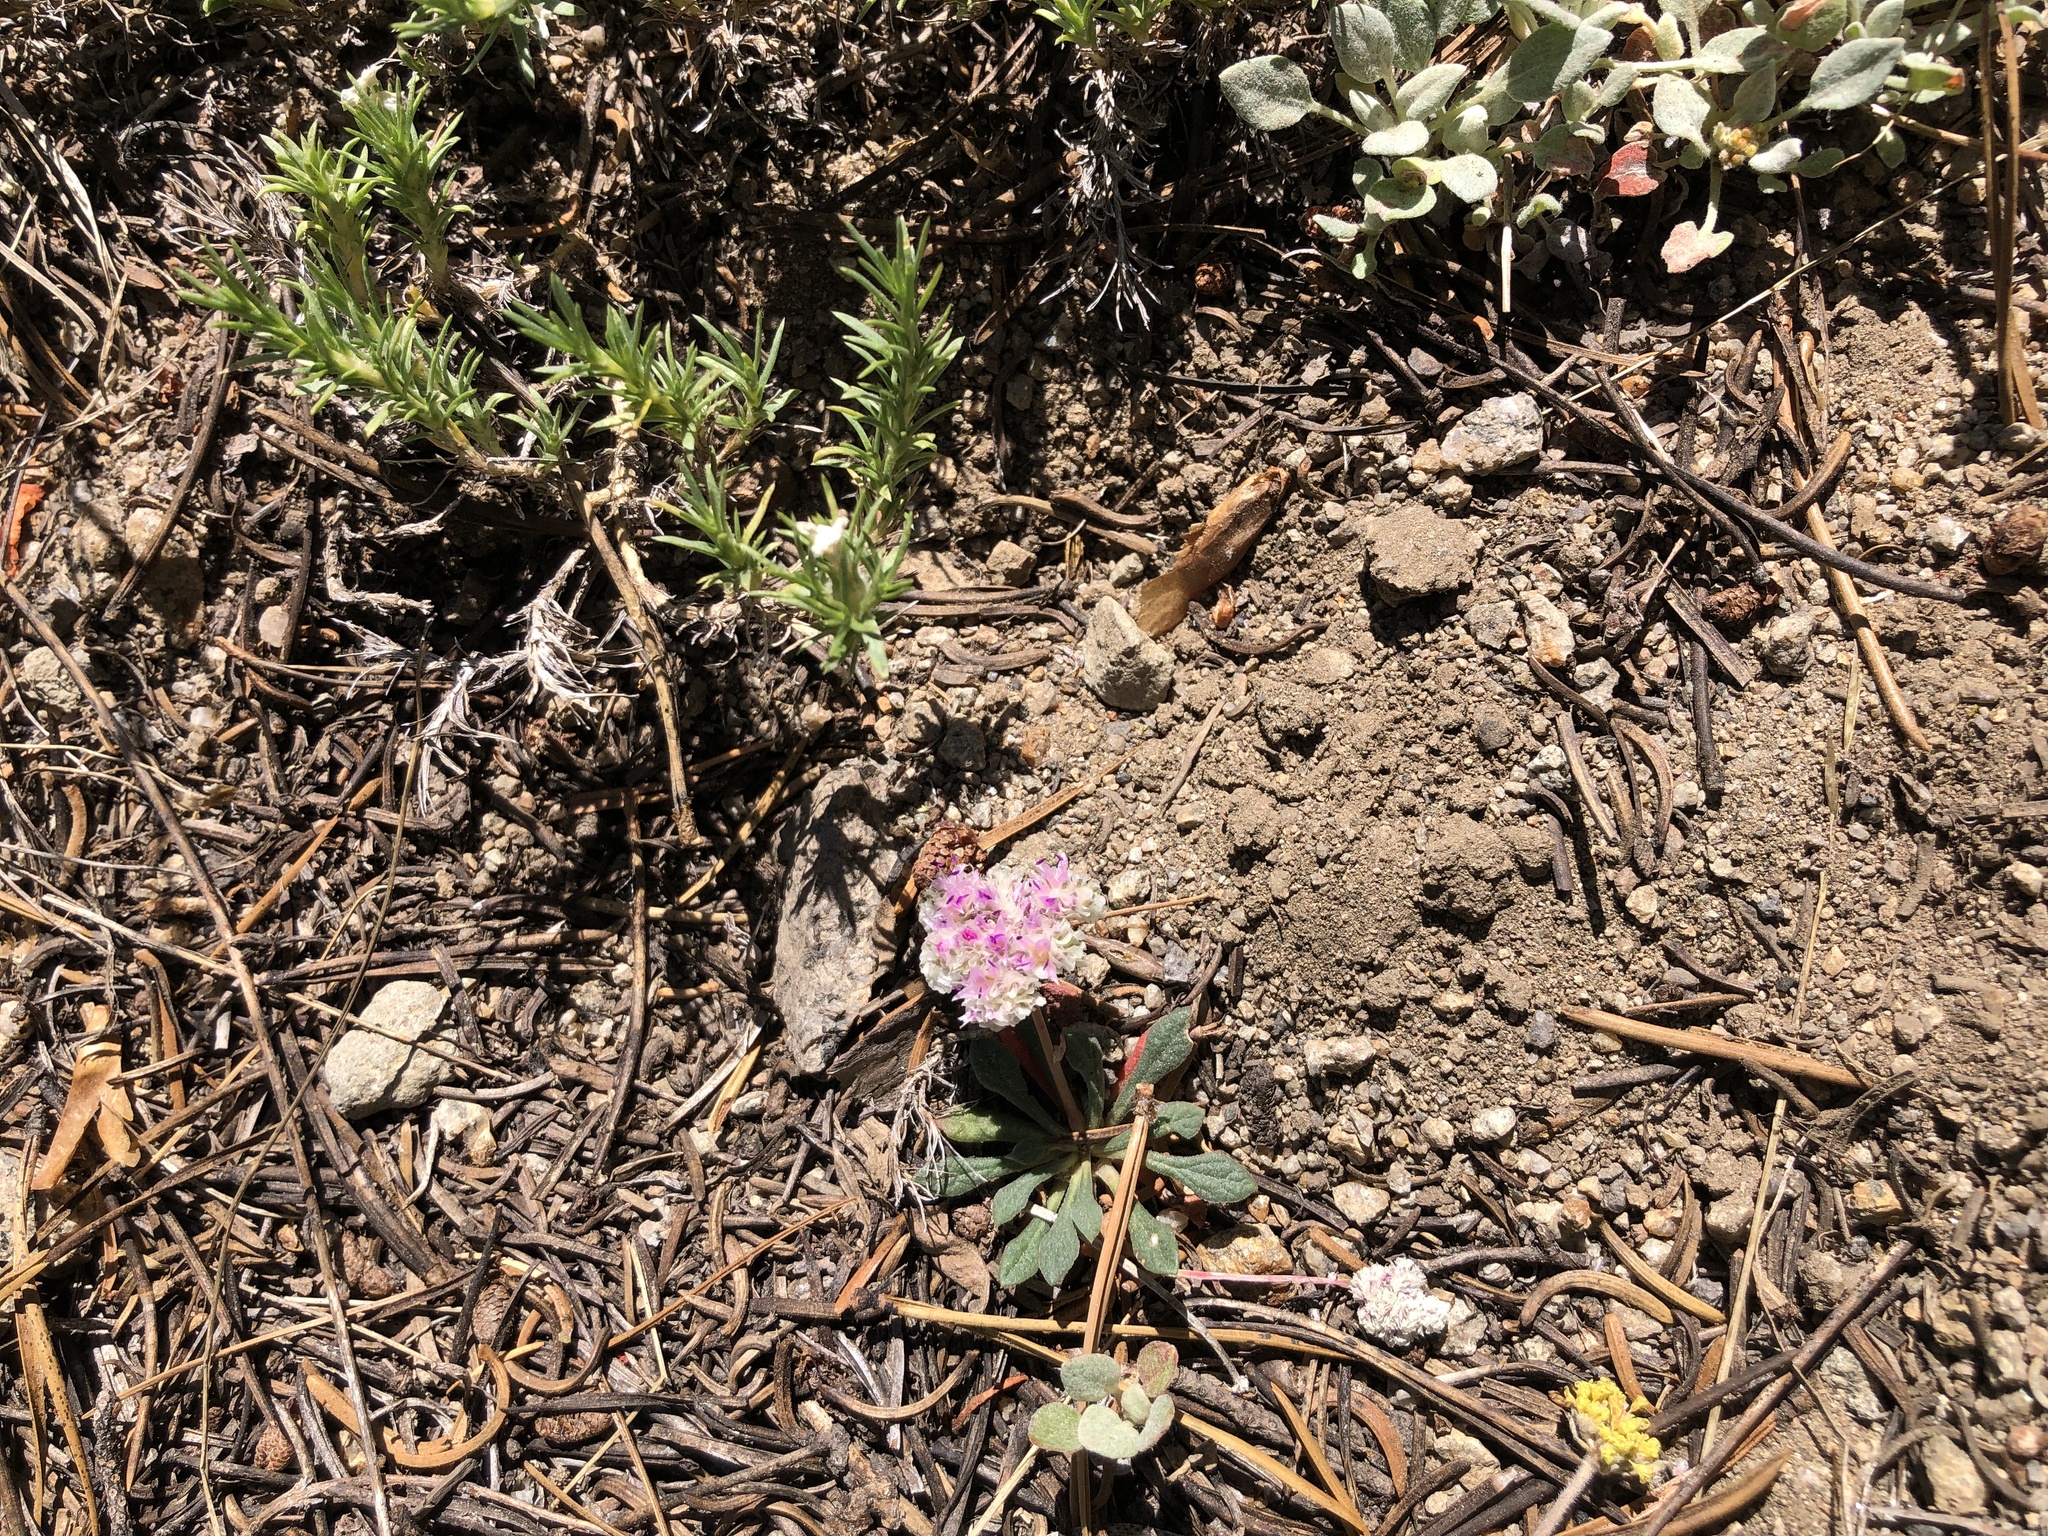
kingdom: Plantae
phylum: Tracheophyta
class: Magnoliopsida
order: Caryophyllales
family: Montiaceae
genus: Calyptridium
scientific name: Calyptridium monospermum
